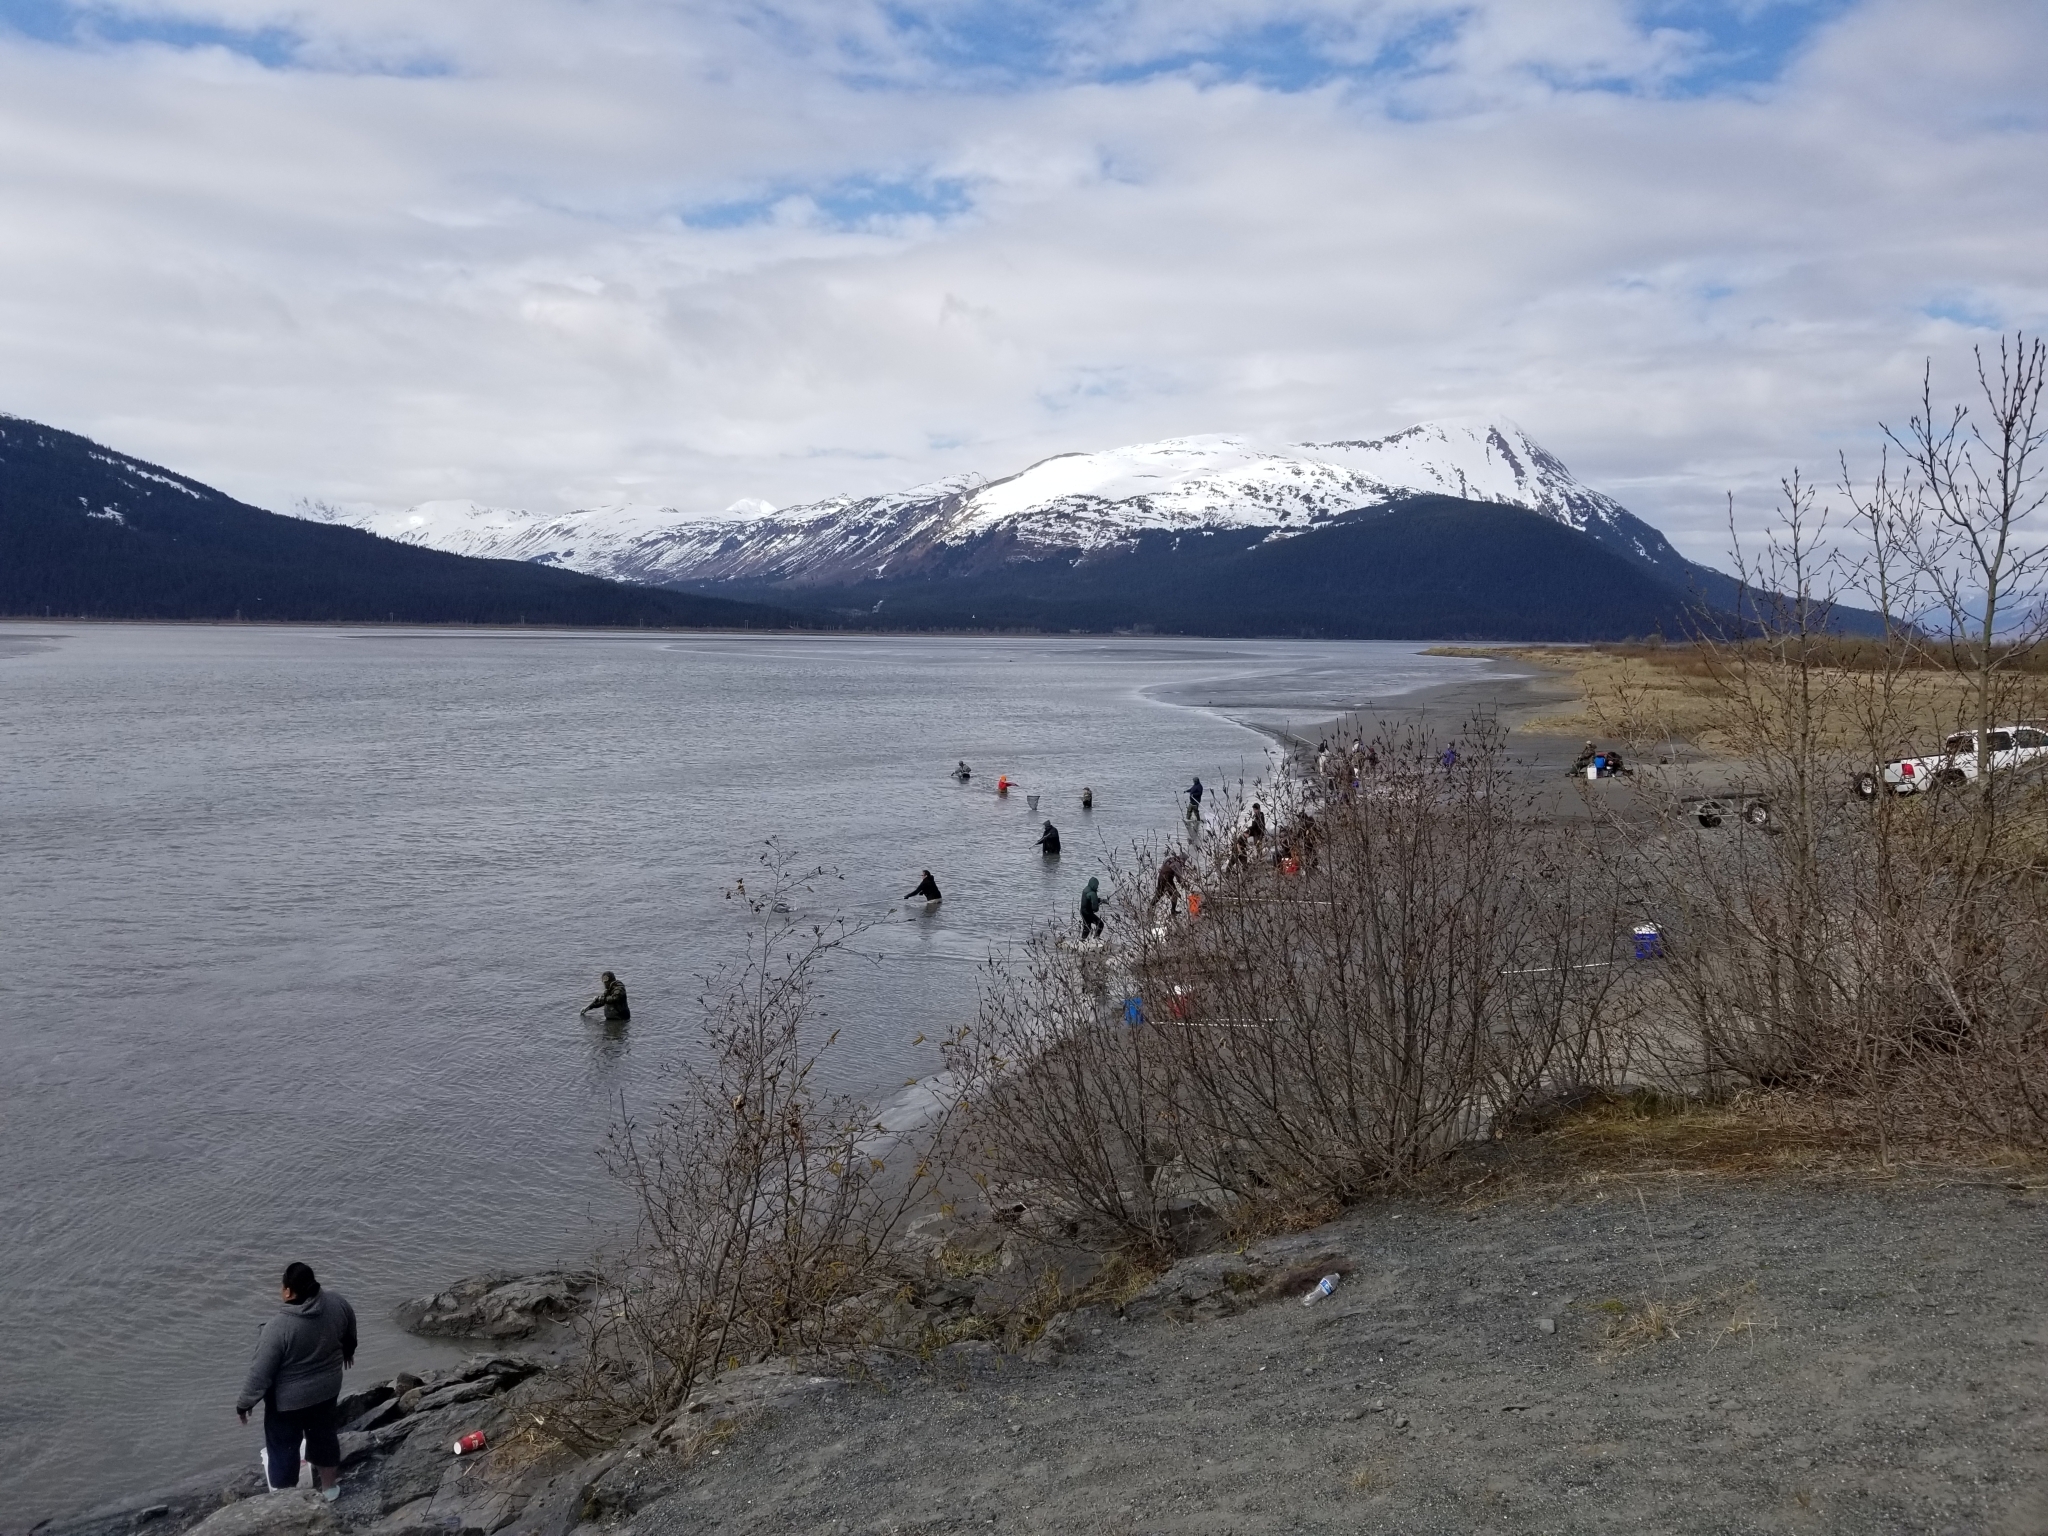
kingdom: Animalia
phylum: Chordata
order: Osmeriformes
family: Osmeridae
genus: Thaleichthys
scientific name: Thaleichthys pacificus
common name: Eulachon
